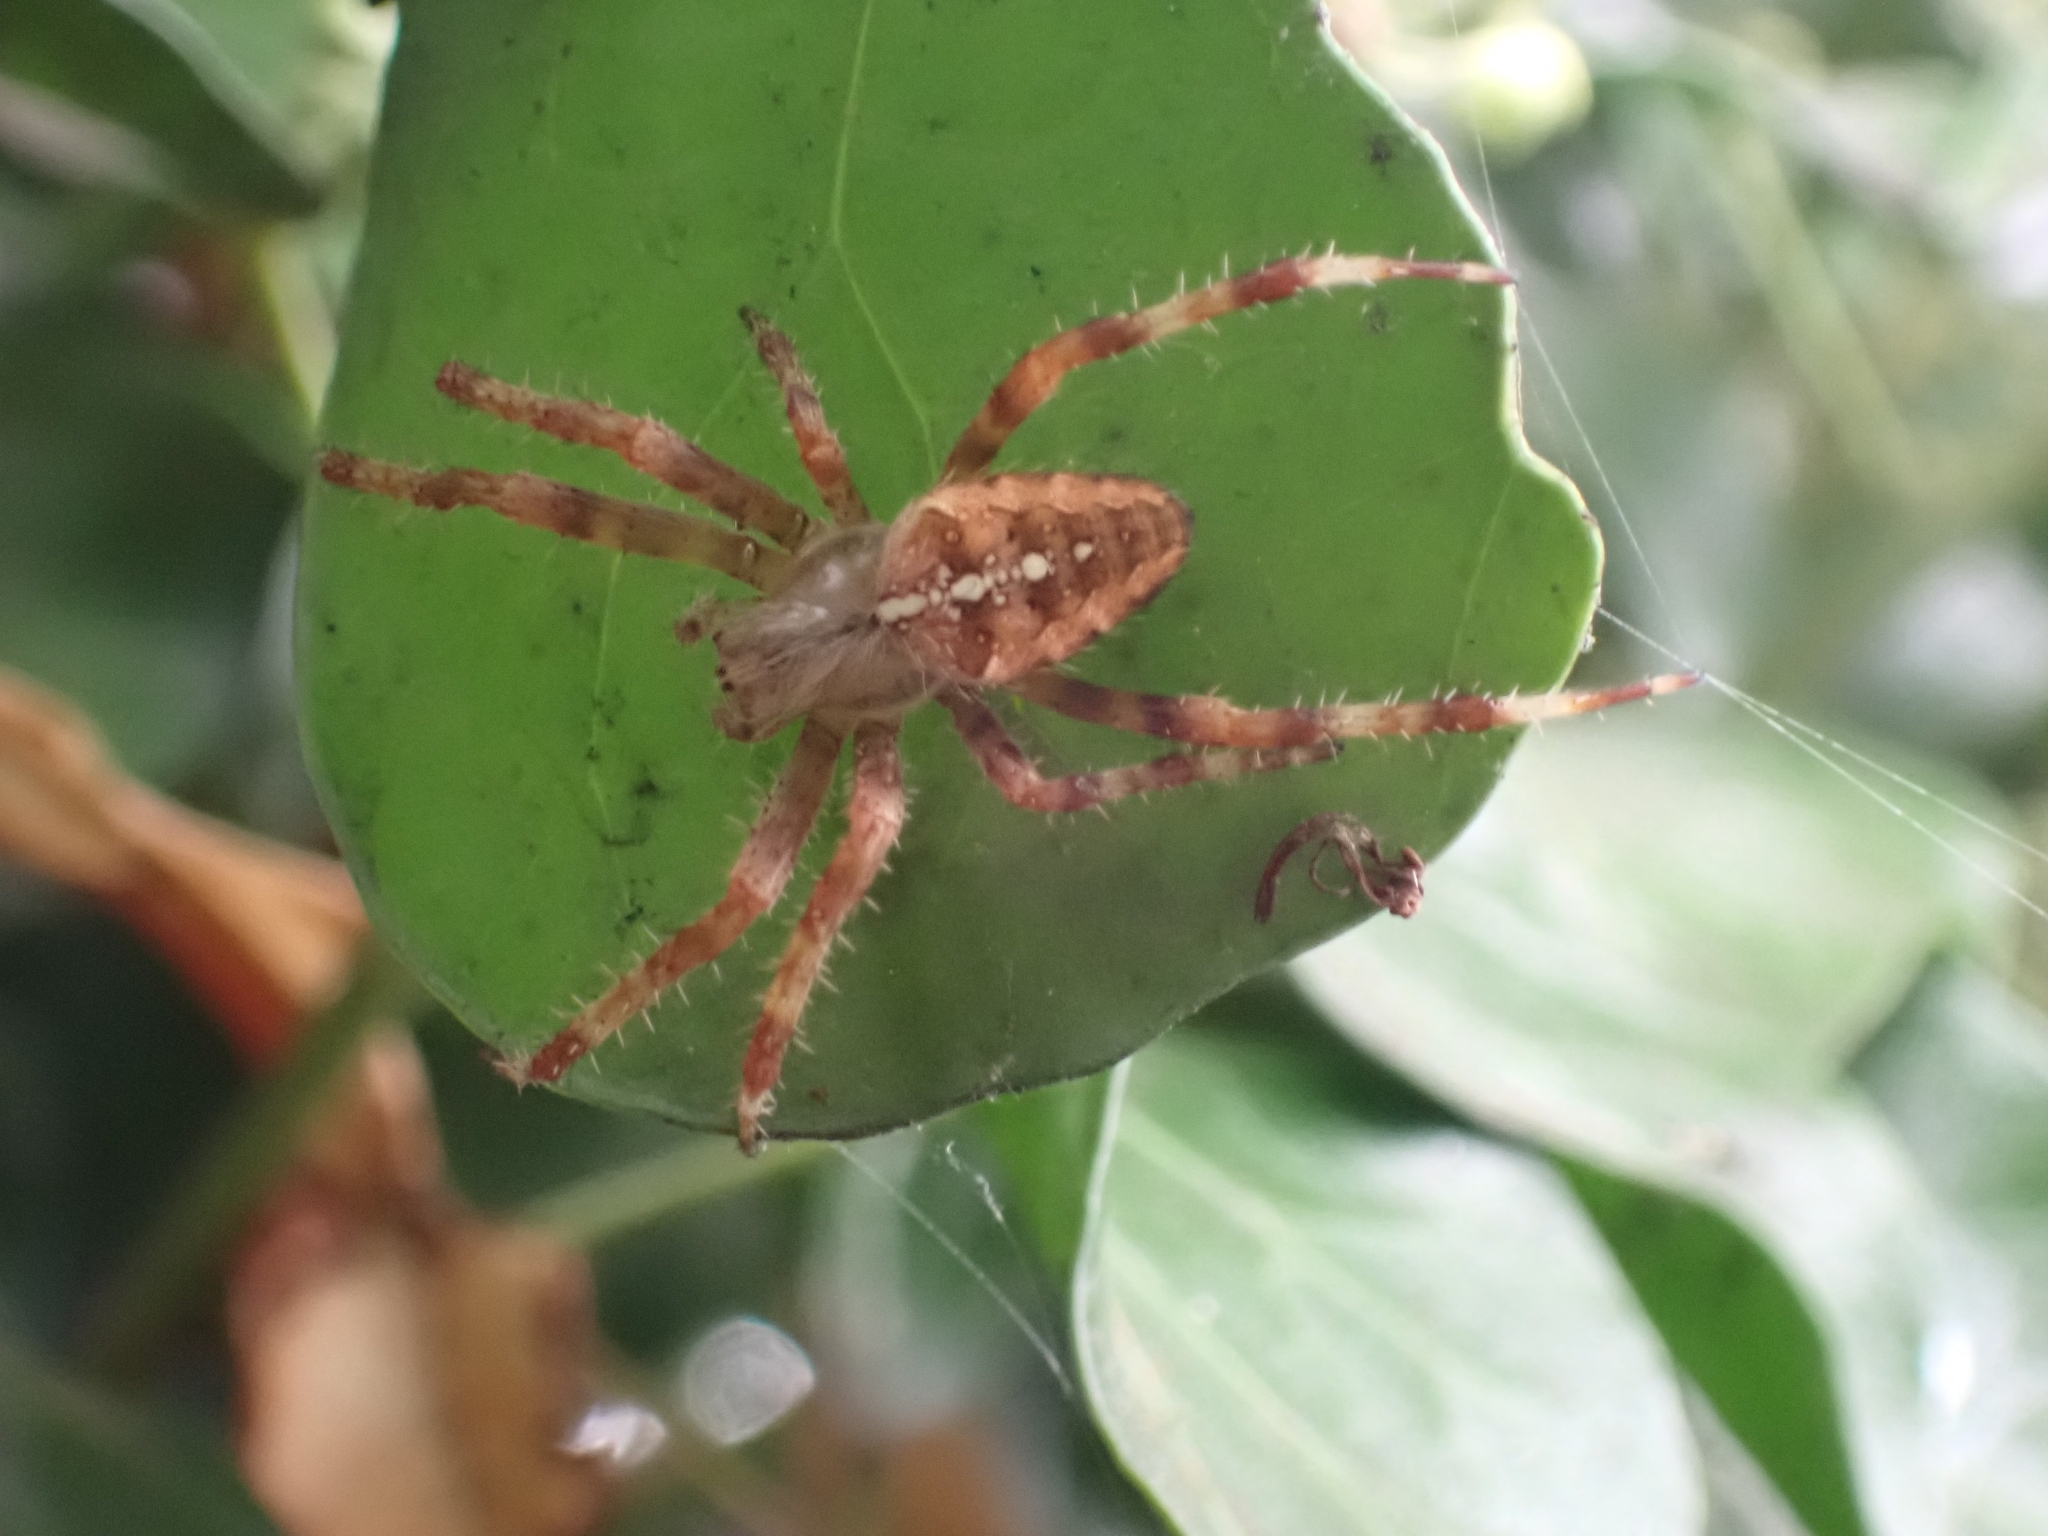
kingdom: Animalia
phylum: Arthropoda
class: Arachnida
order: Araneae
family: Araneidae
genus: Araneus
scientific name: Araneus diadematus
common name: Cross orbweaver
